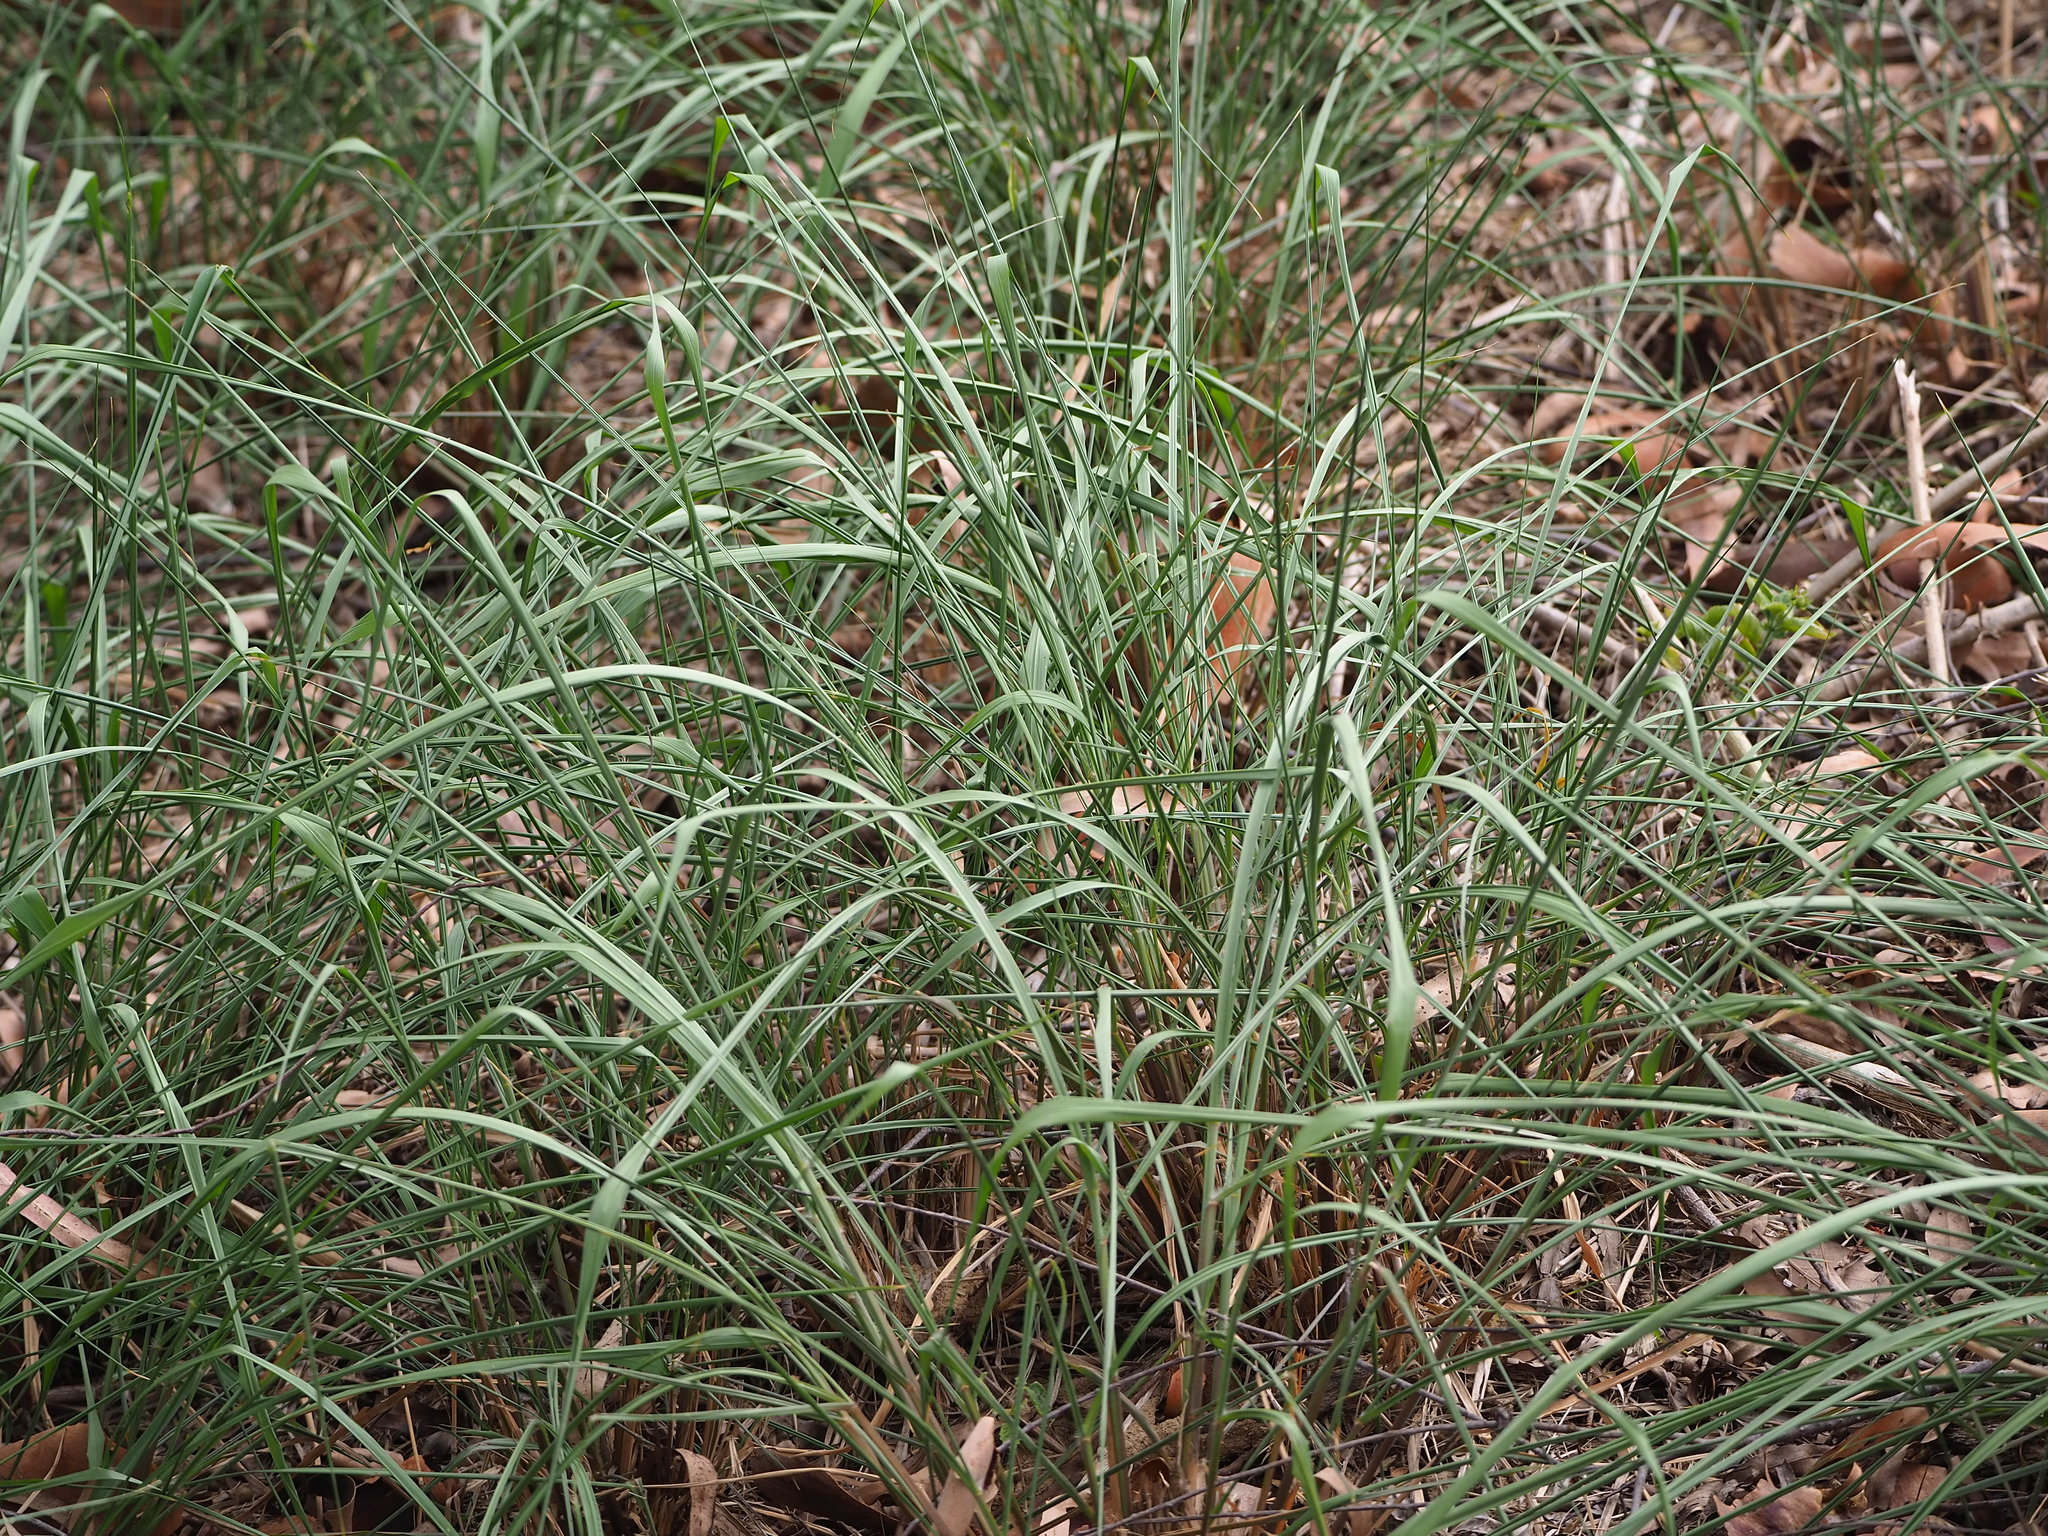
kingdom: Plantae
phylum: Tracheophyta
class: Liliopsida
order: Poales
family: Poaceae
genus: Megathyrsus
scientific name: Megathyrsus maximus
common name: Guineagrass
